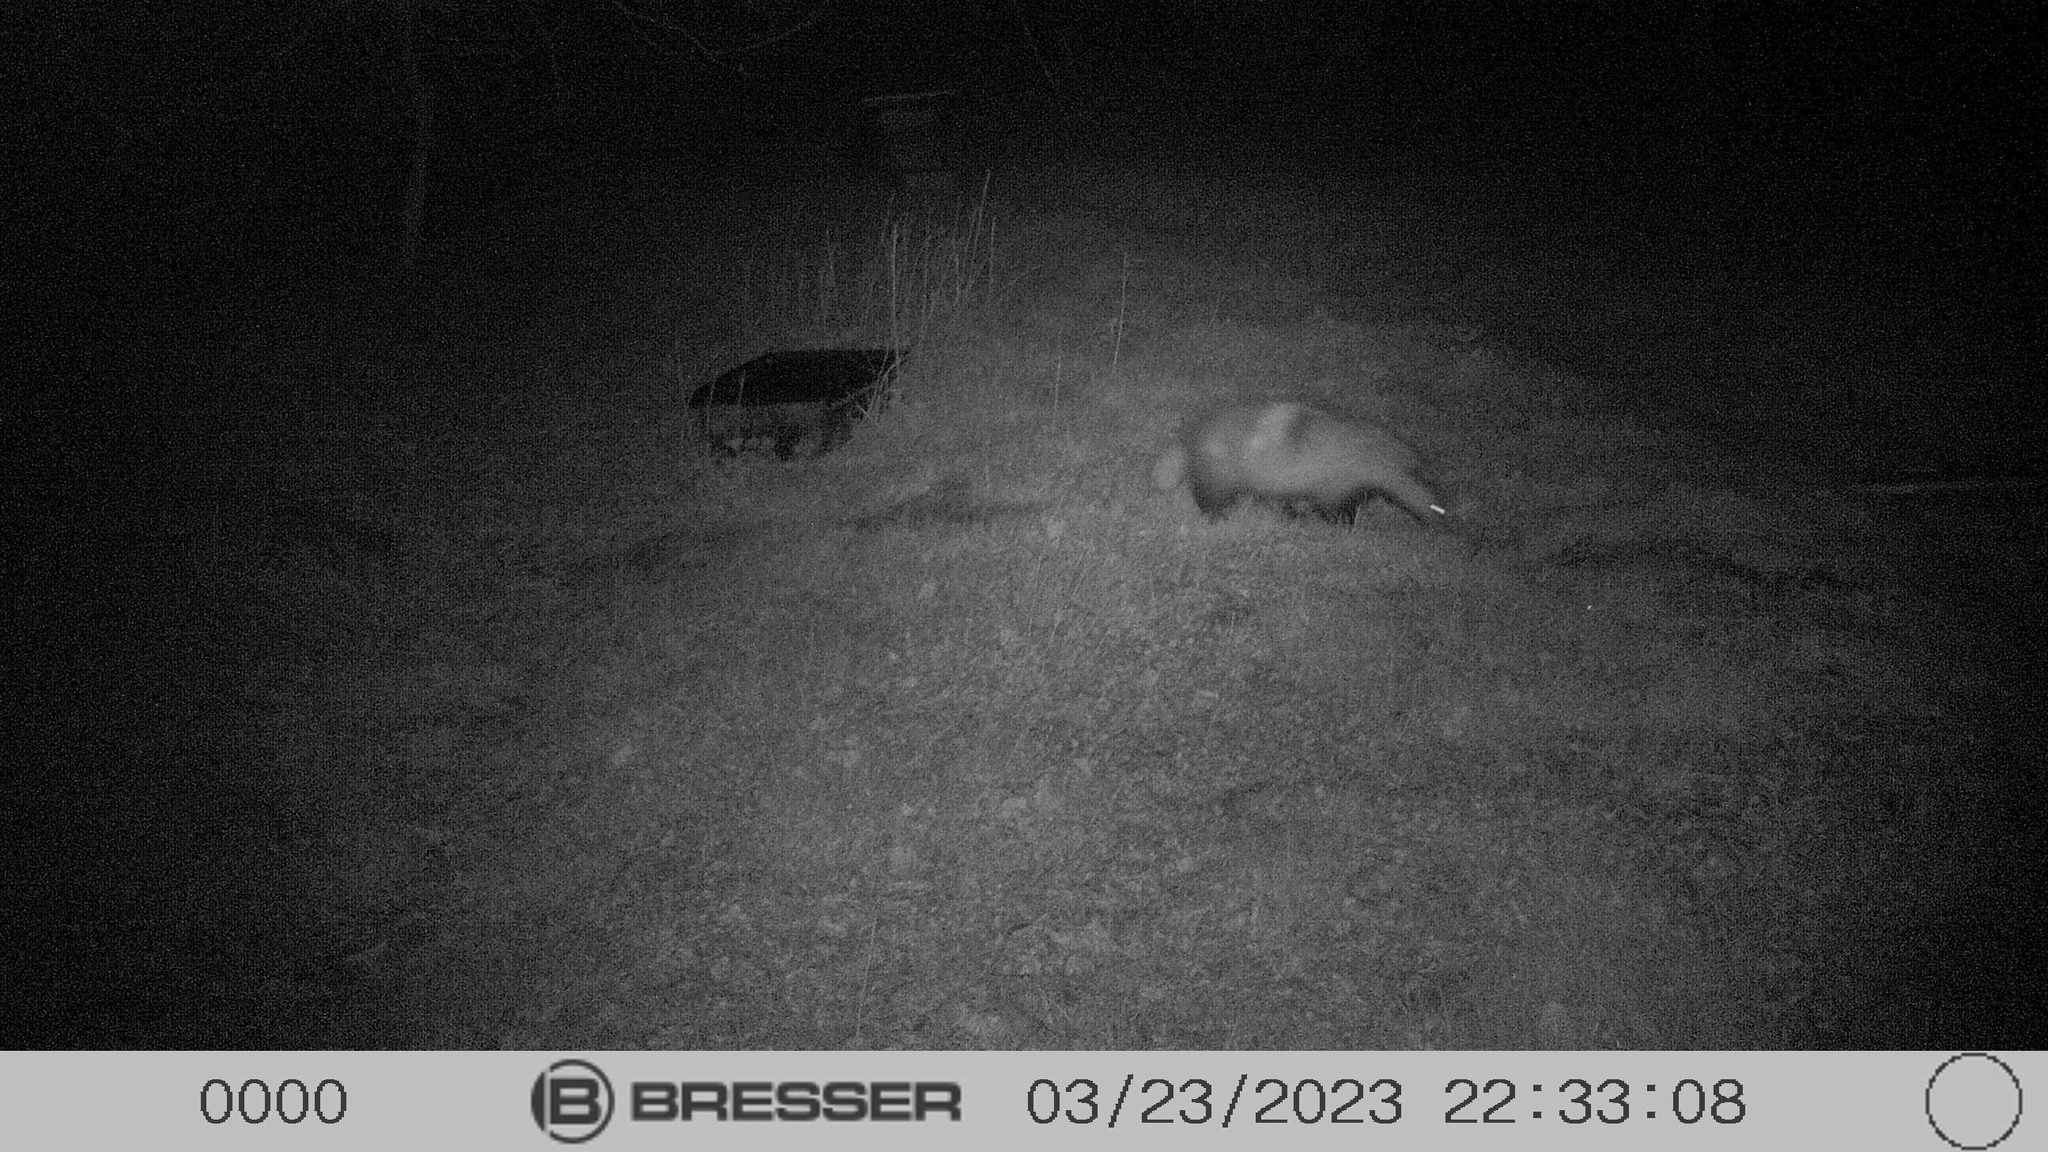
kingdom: Animalia
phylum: Chordata
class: Mammalia
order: Carnivora
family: Mustelidae
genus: Meles
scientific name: Meles meles
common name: Eurasian badger
